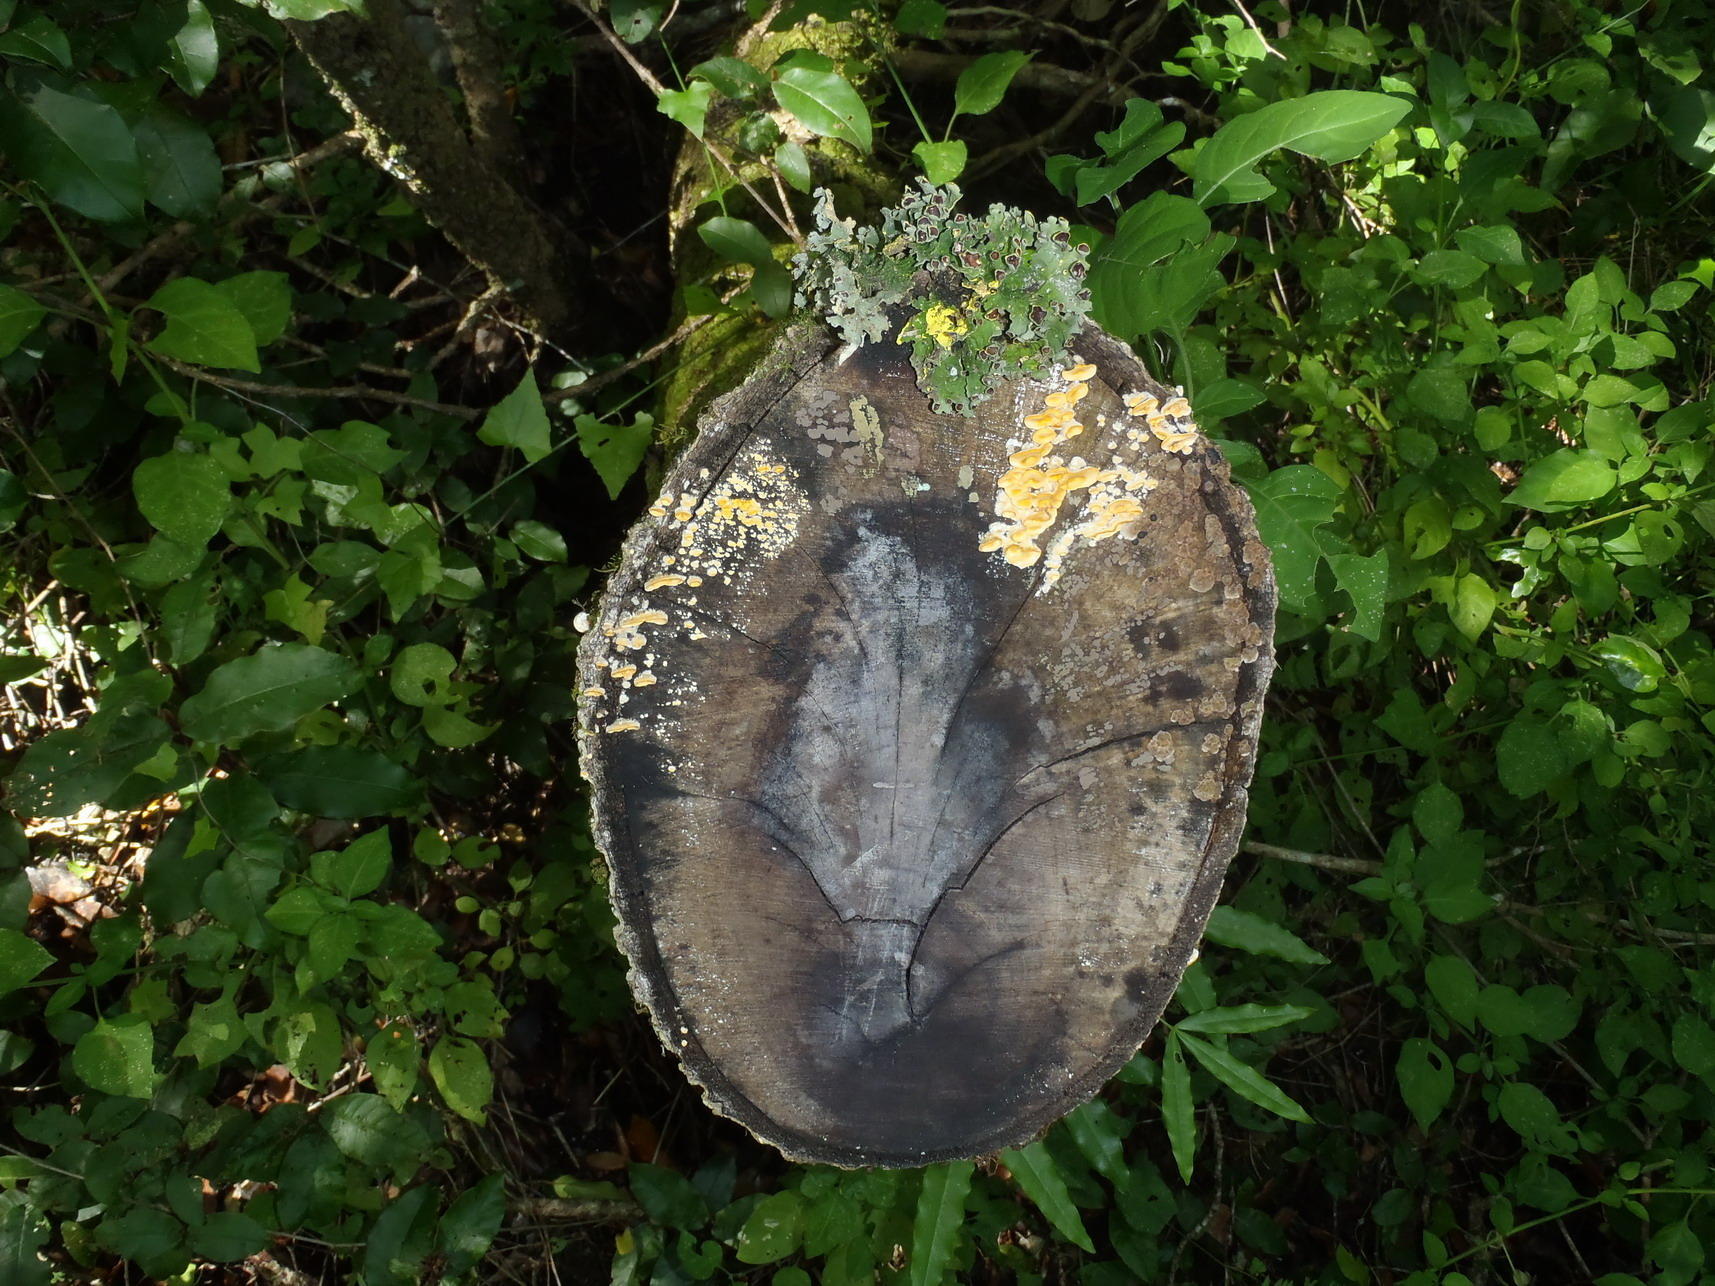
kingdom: Fungi
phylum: Ascomycota
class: Lecanoromycetes
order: Peltigerales
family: Lobariaceae
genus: Pseudocyphellaria
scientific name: Pseudocyphellaria aurata
